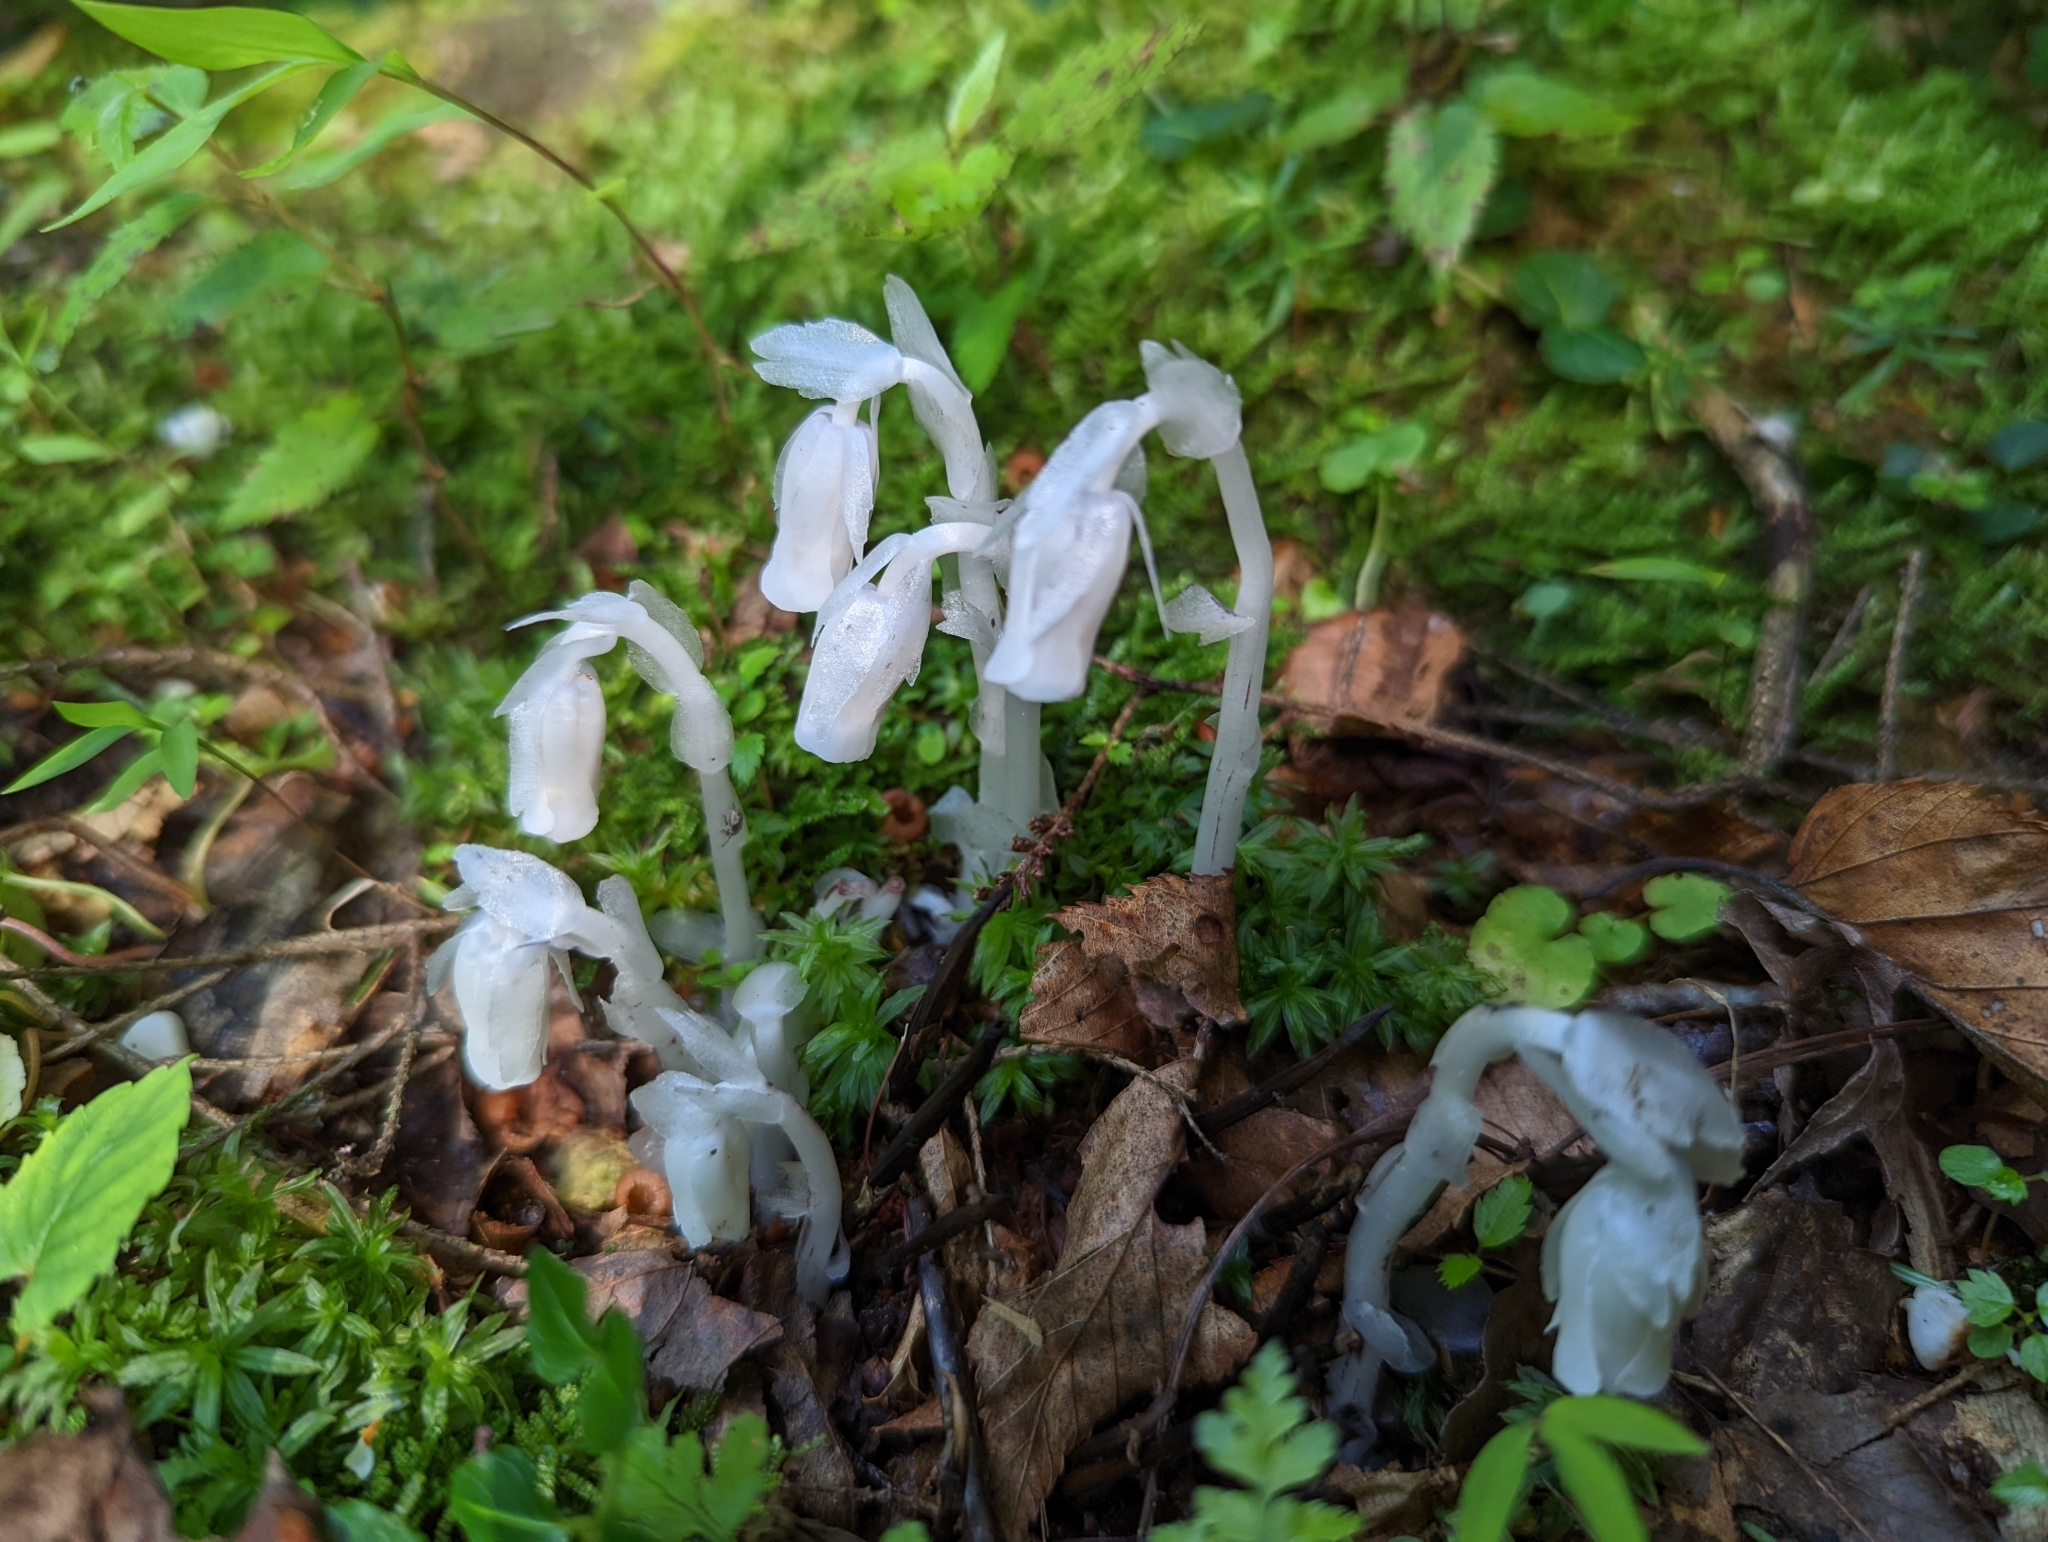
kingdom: Plantae
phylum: Tracheophyta
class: Magnoliopsida
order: Ericales
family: Ericaceae
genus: Monotropa
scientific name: Monotropa uniflora
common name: Convulsion root
